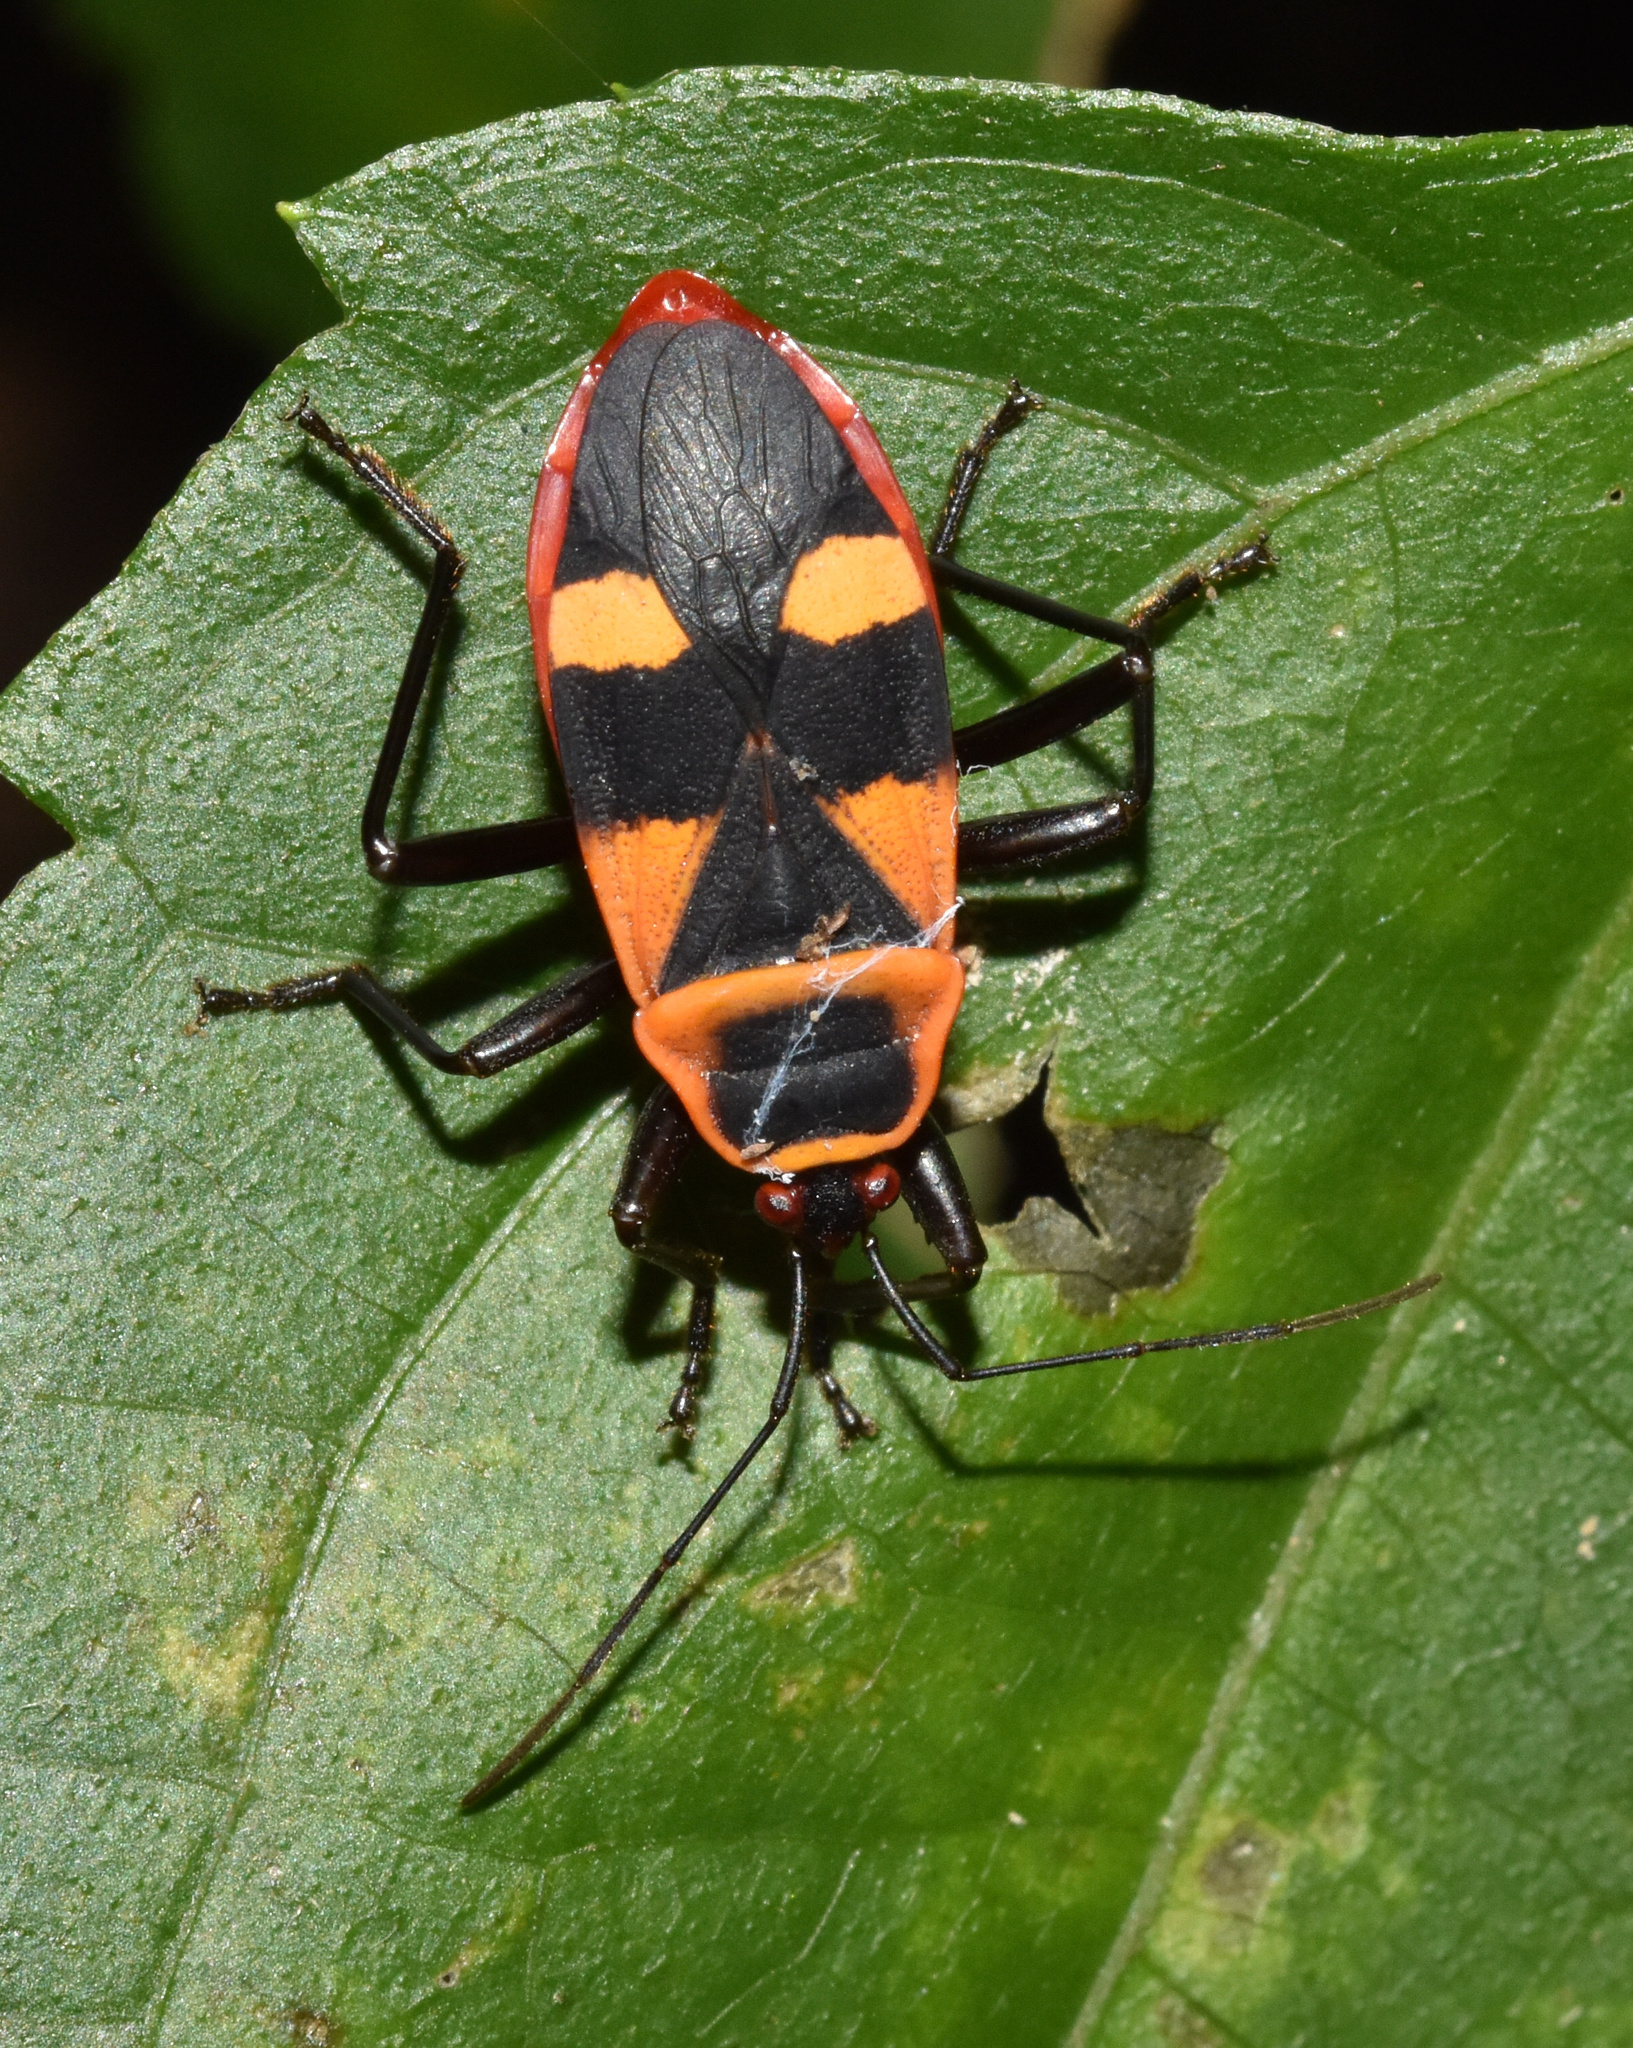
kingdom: Animalia
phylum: Arthropoda
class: Insecta
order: Hemiptera
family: Pyrrhocoridae
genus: Antilochus
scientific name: Antilochus
